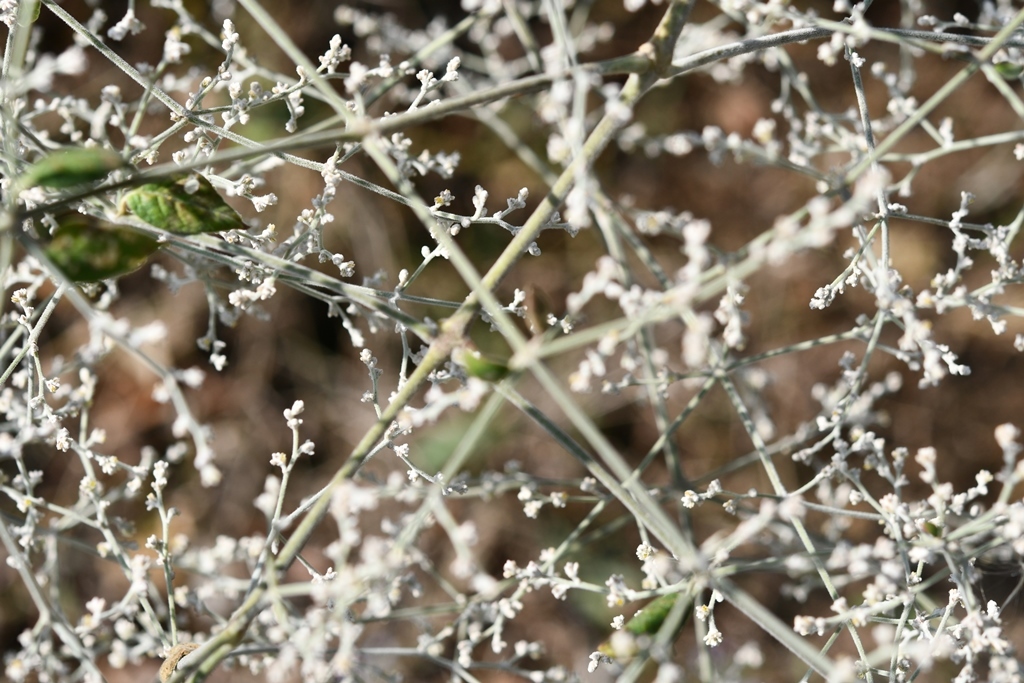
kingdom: Plantae
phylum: Tracheophyta
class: Magnoliopsida
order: Caryophyllales
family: Amaranthaceae
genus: Iresine
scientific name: Iresine latifolia
